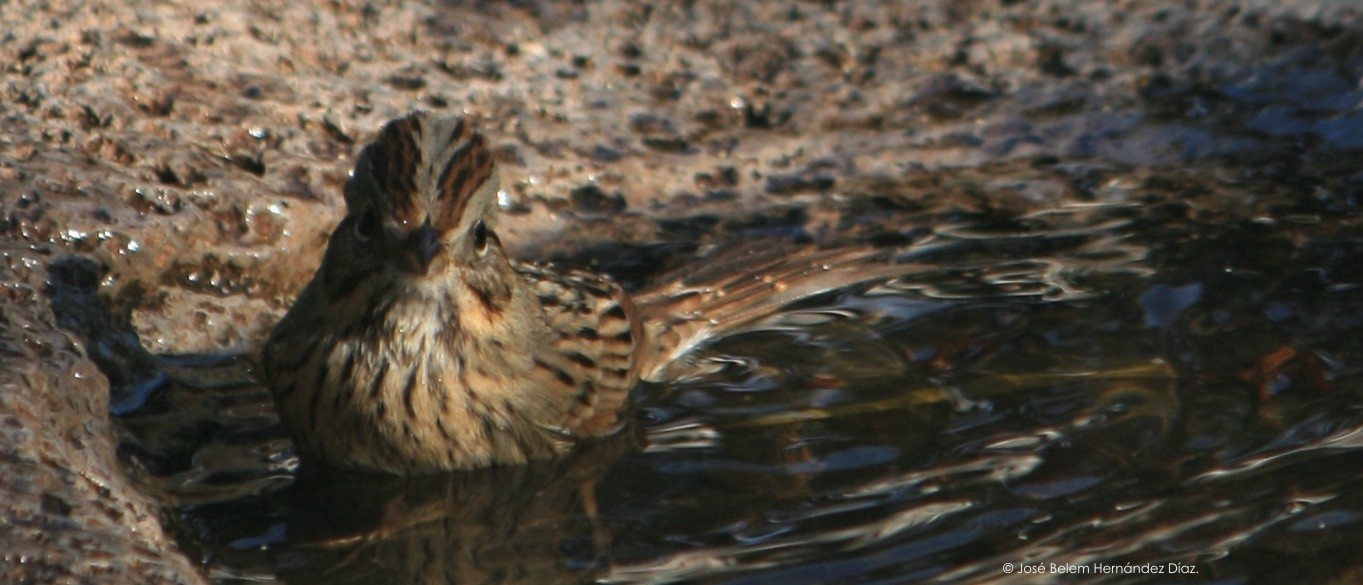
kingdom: Animalia
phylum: Chordata
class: Aves
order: Passeriformes
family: Passerellidae
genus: Melospiza
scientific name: Melospiza lincolnii
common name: Lincoln's sparrow
